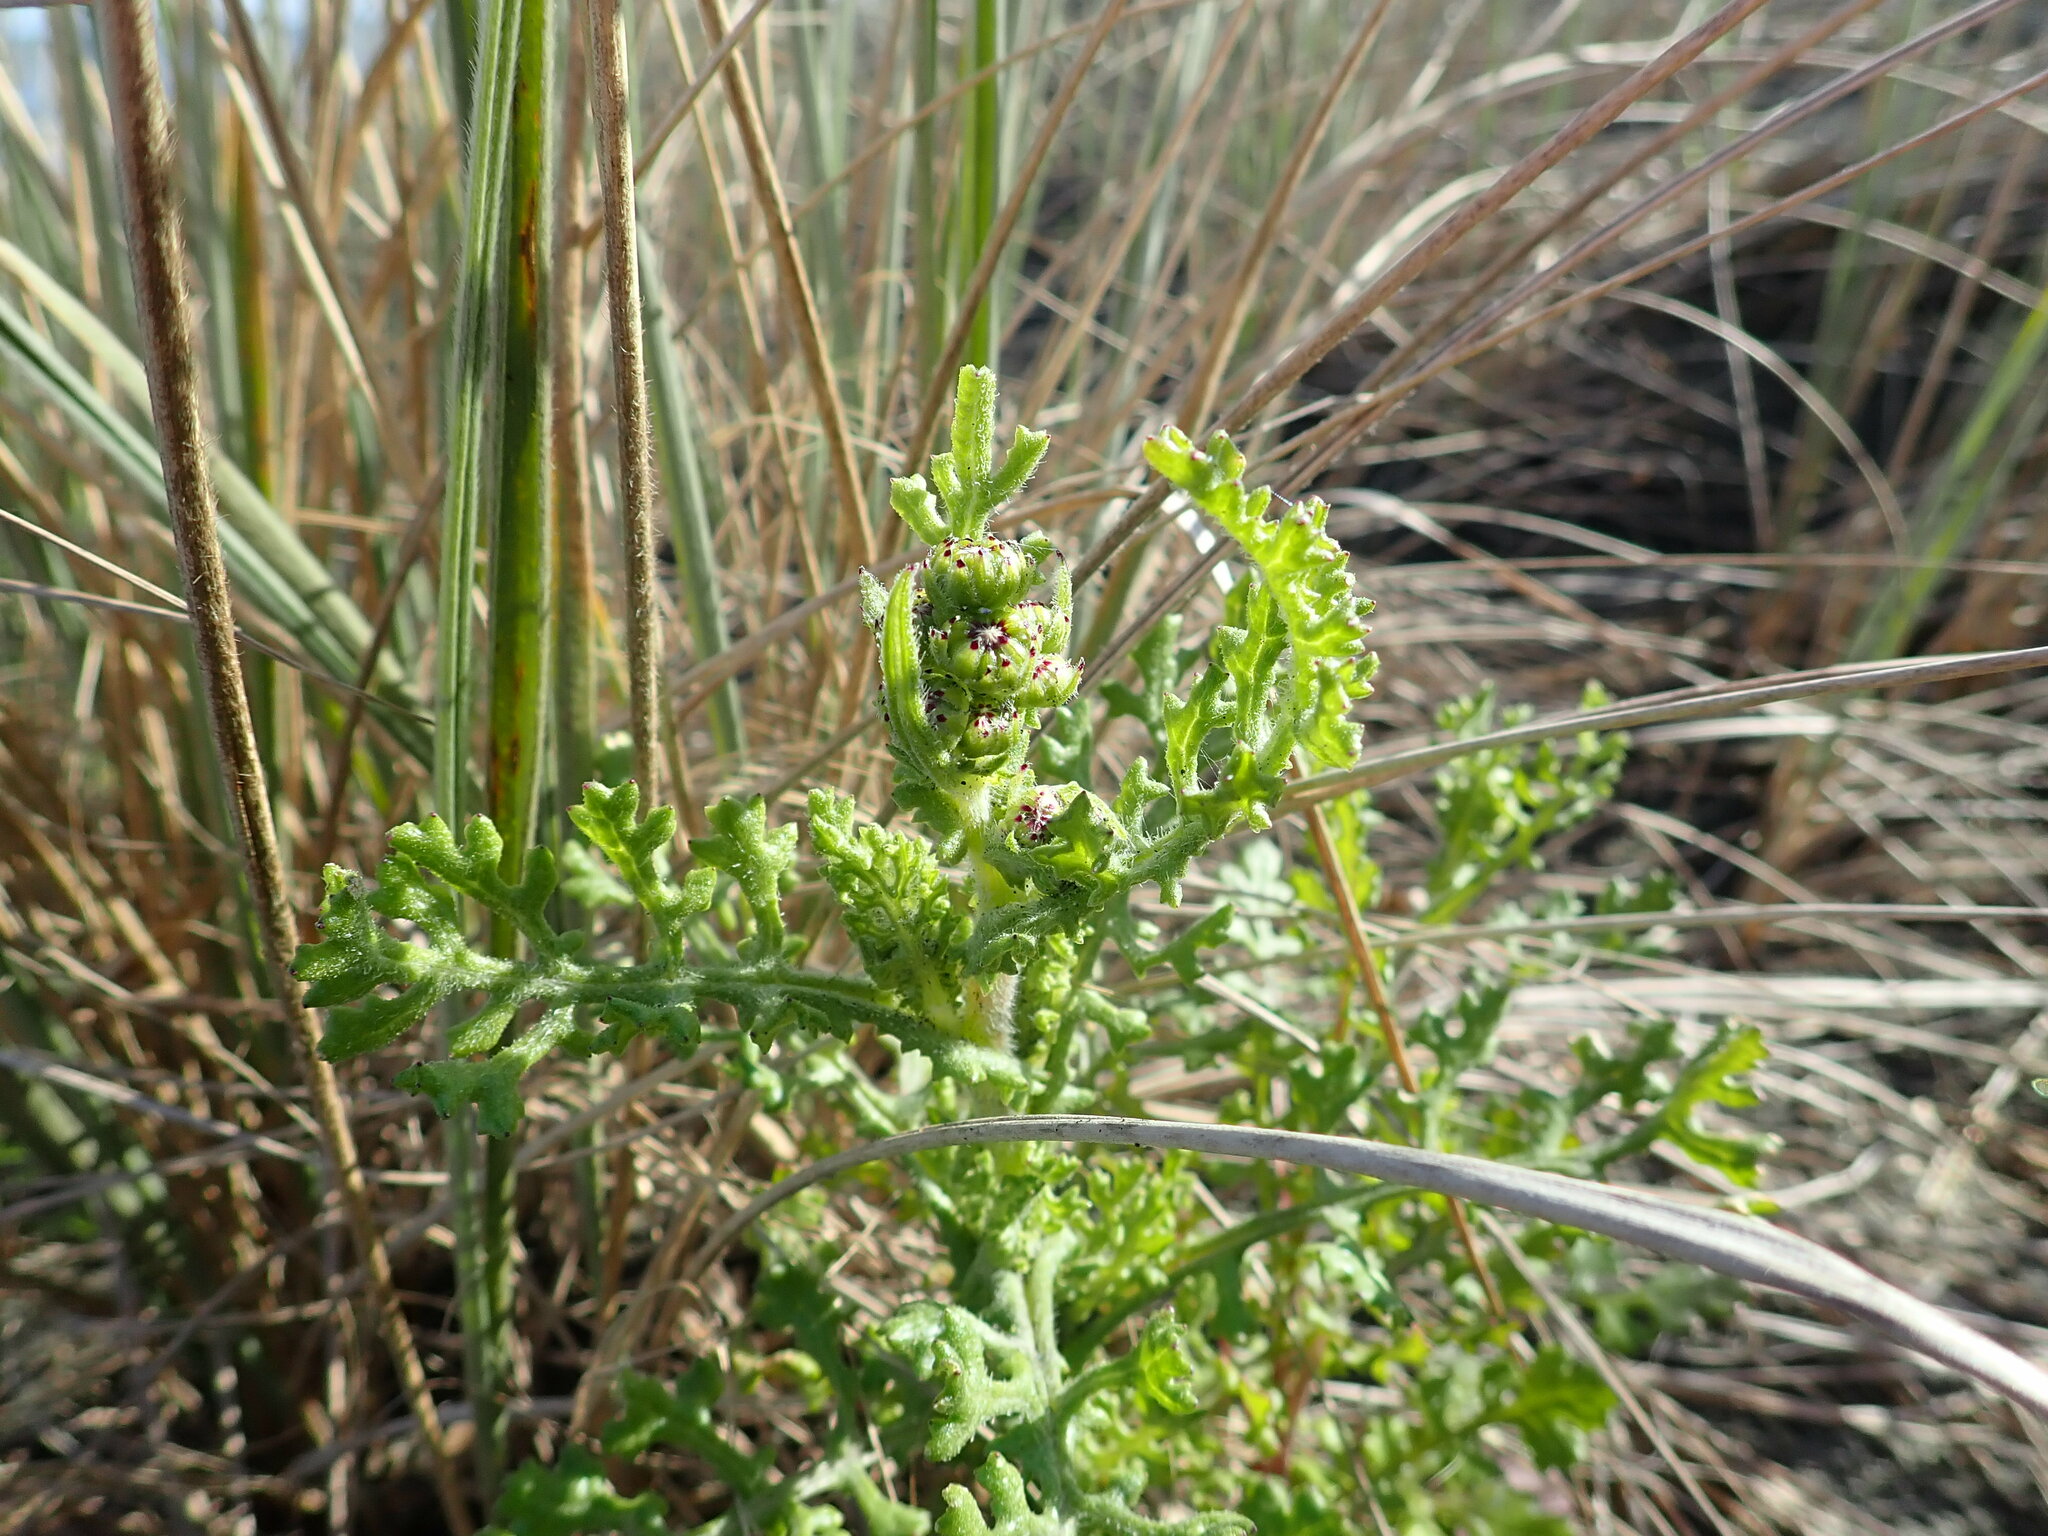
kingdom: Plantae
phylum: Tracheophyta
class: Magnoliopsida
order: Asterales
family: Asteraceae
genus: Senecio
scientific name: Senecio elegans
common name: Purple groundsel
